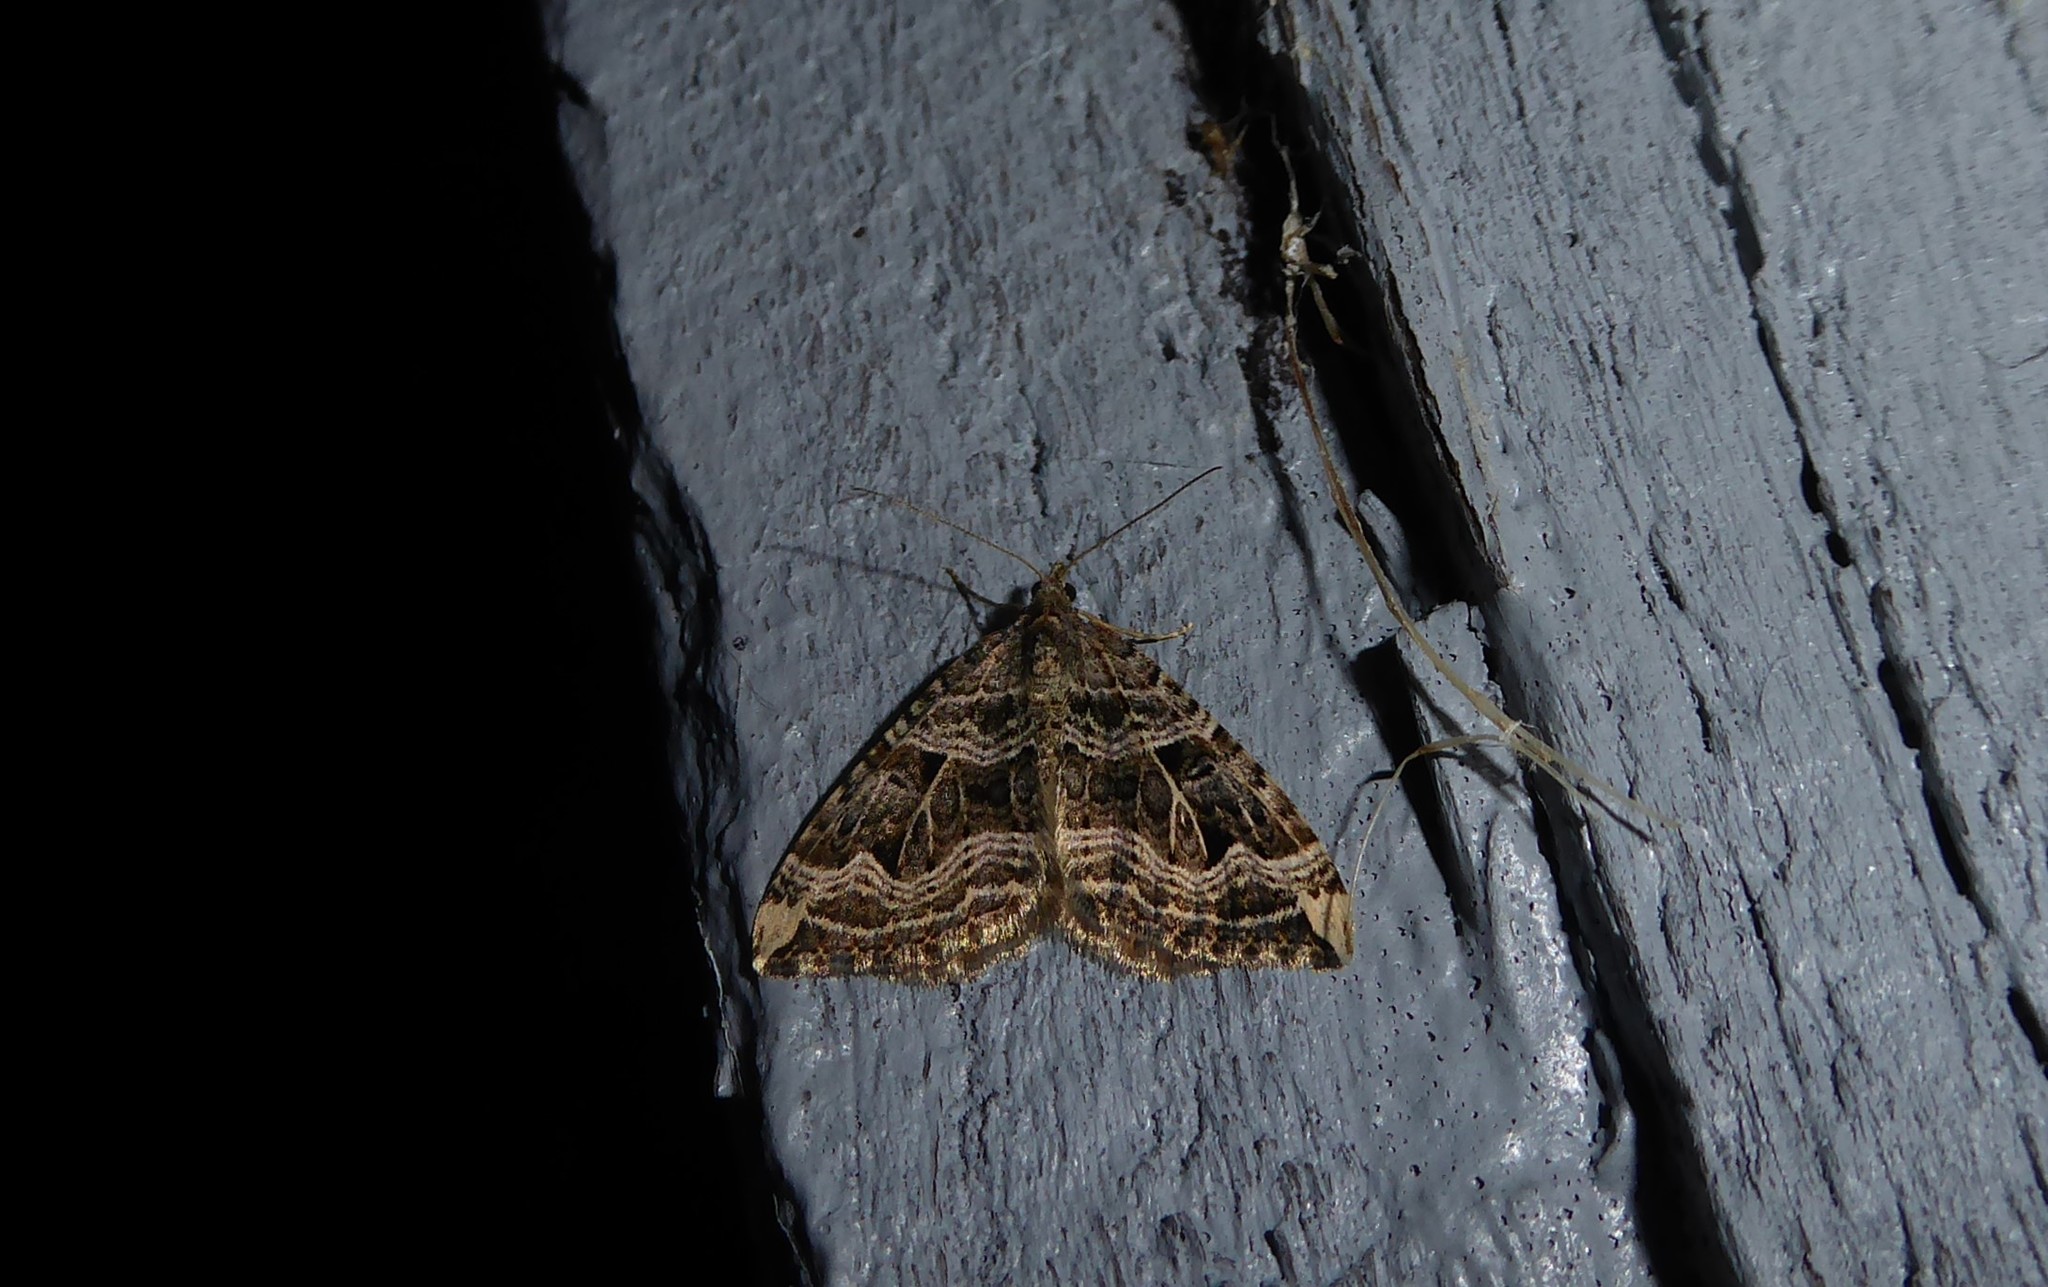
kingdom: Animalia
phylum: Arthropoda
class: Insecta
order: Lepidoptera
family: Geometridae
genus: Xanthorhoe
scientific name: Xanthorhoe semifissata
